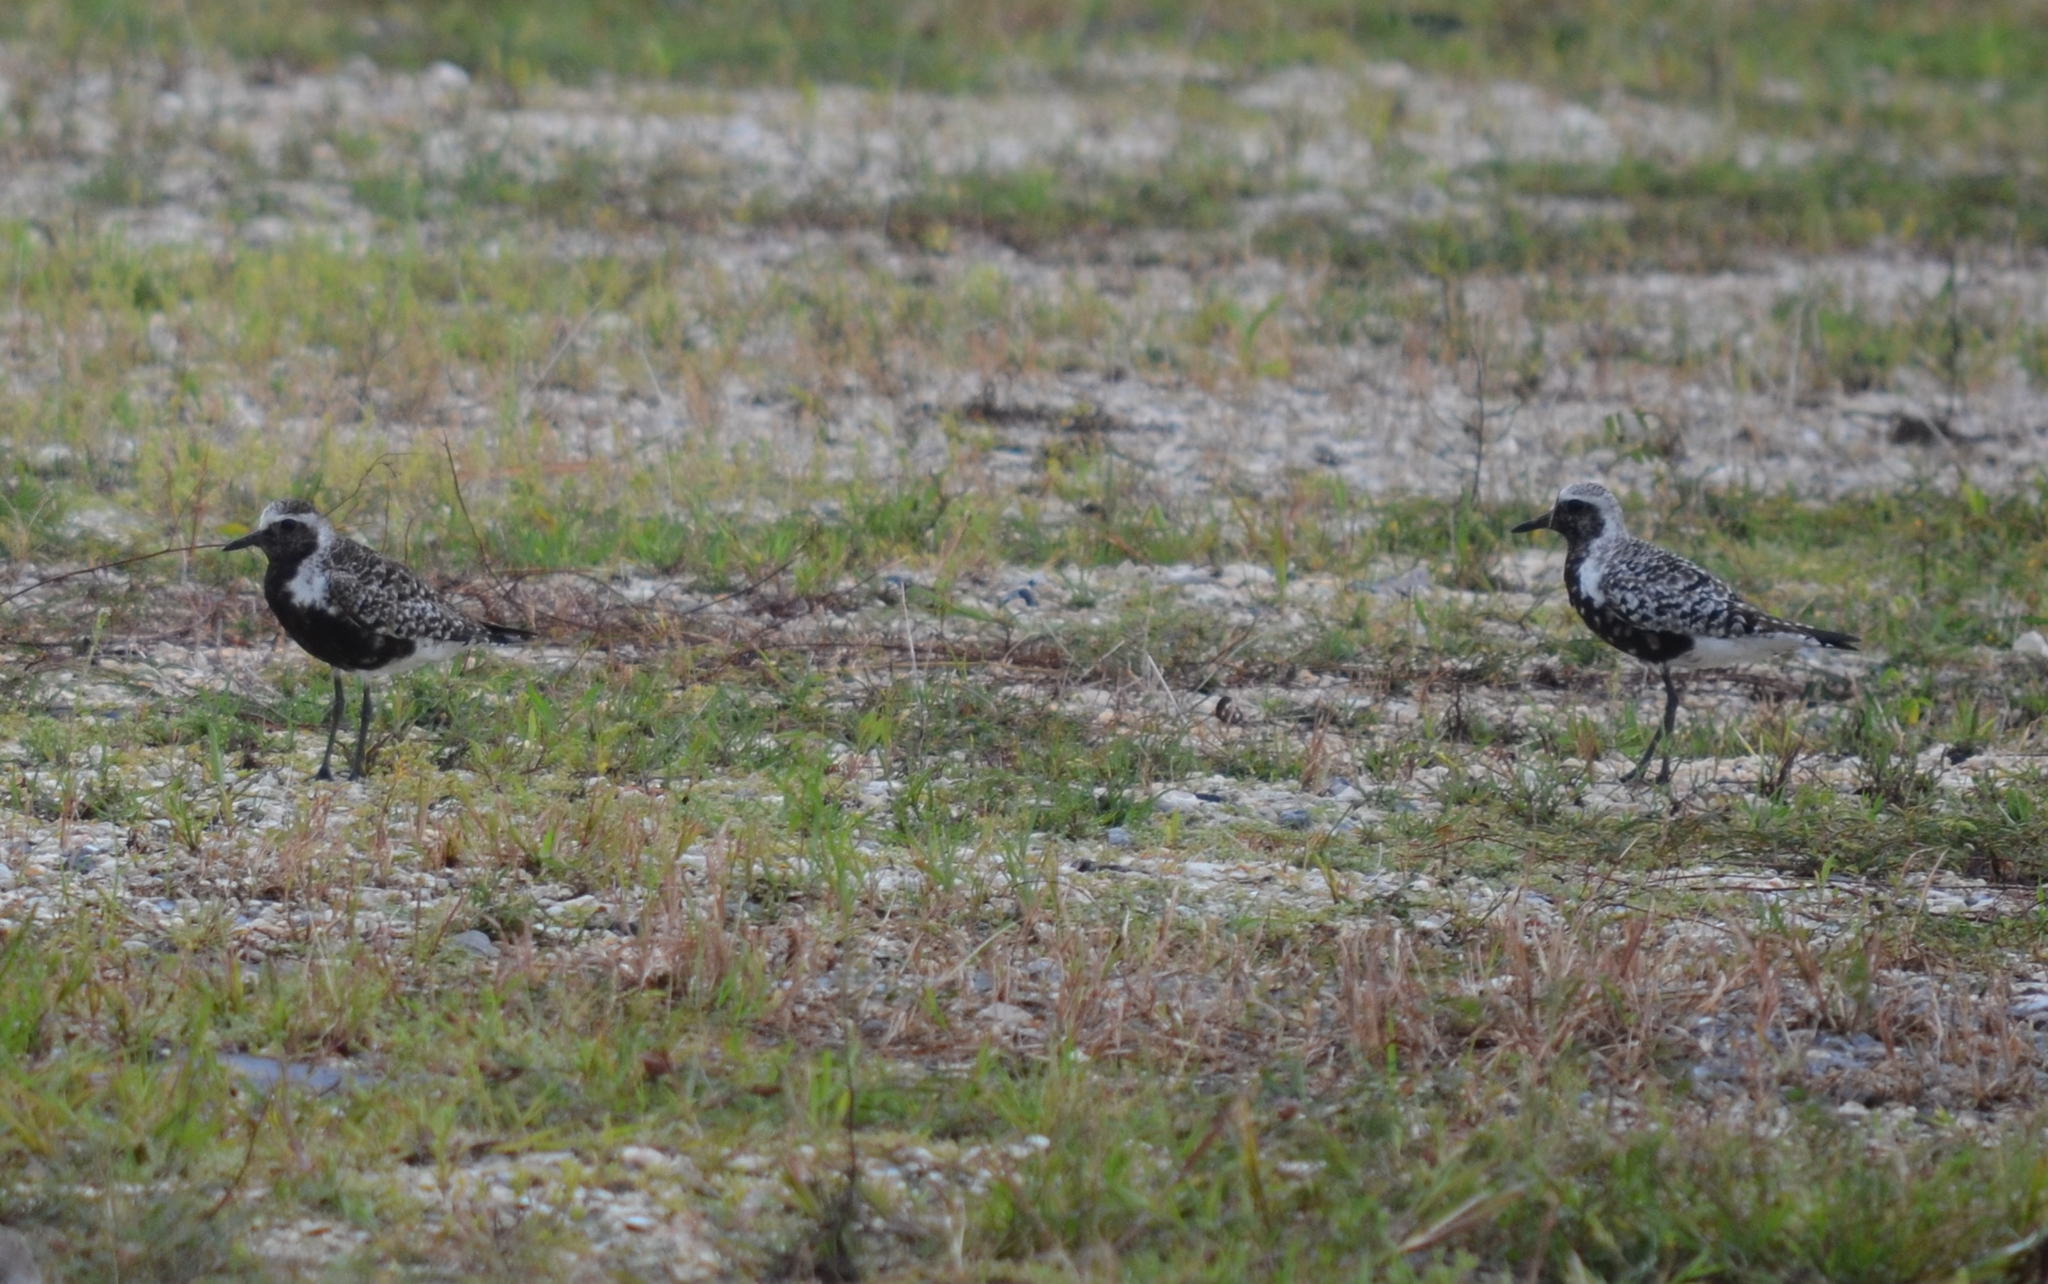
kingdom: Animalia
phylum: Chordata
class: Aves
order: Charadriiformes
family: Charadriidae
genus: Pluvialis
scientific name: Pluvialis squatarola
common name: Grey plover
